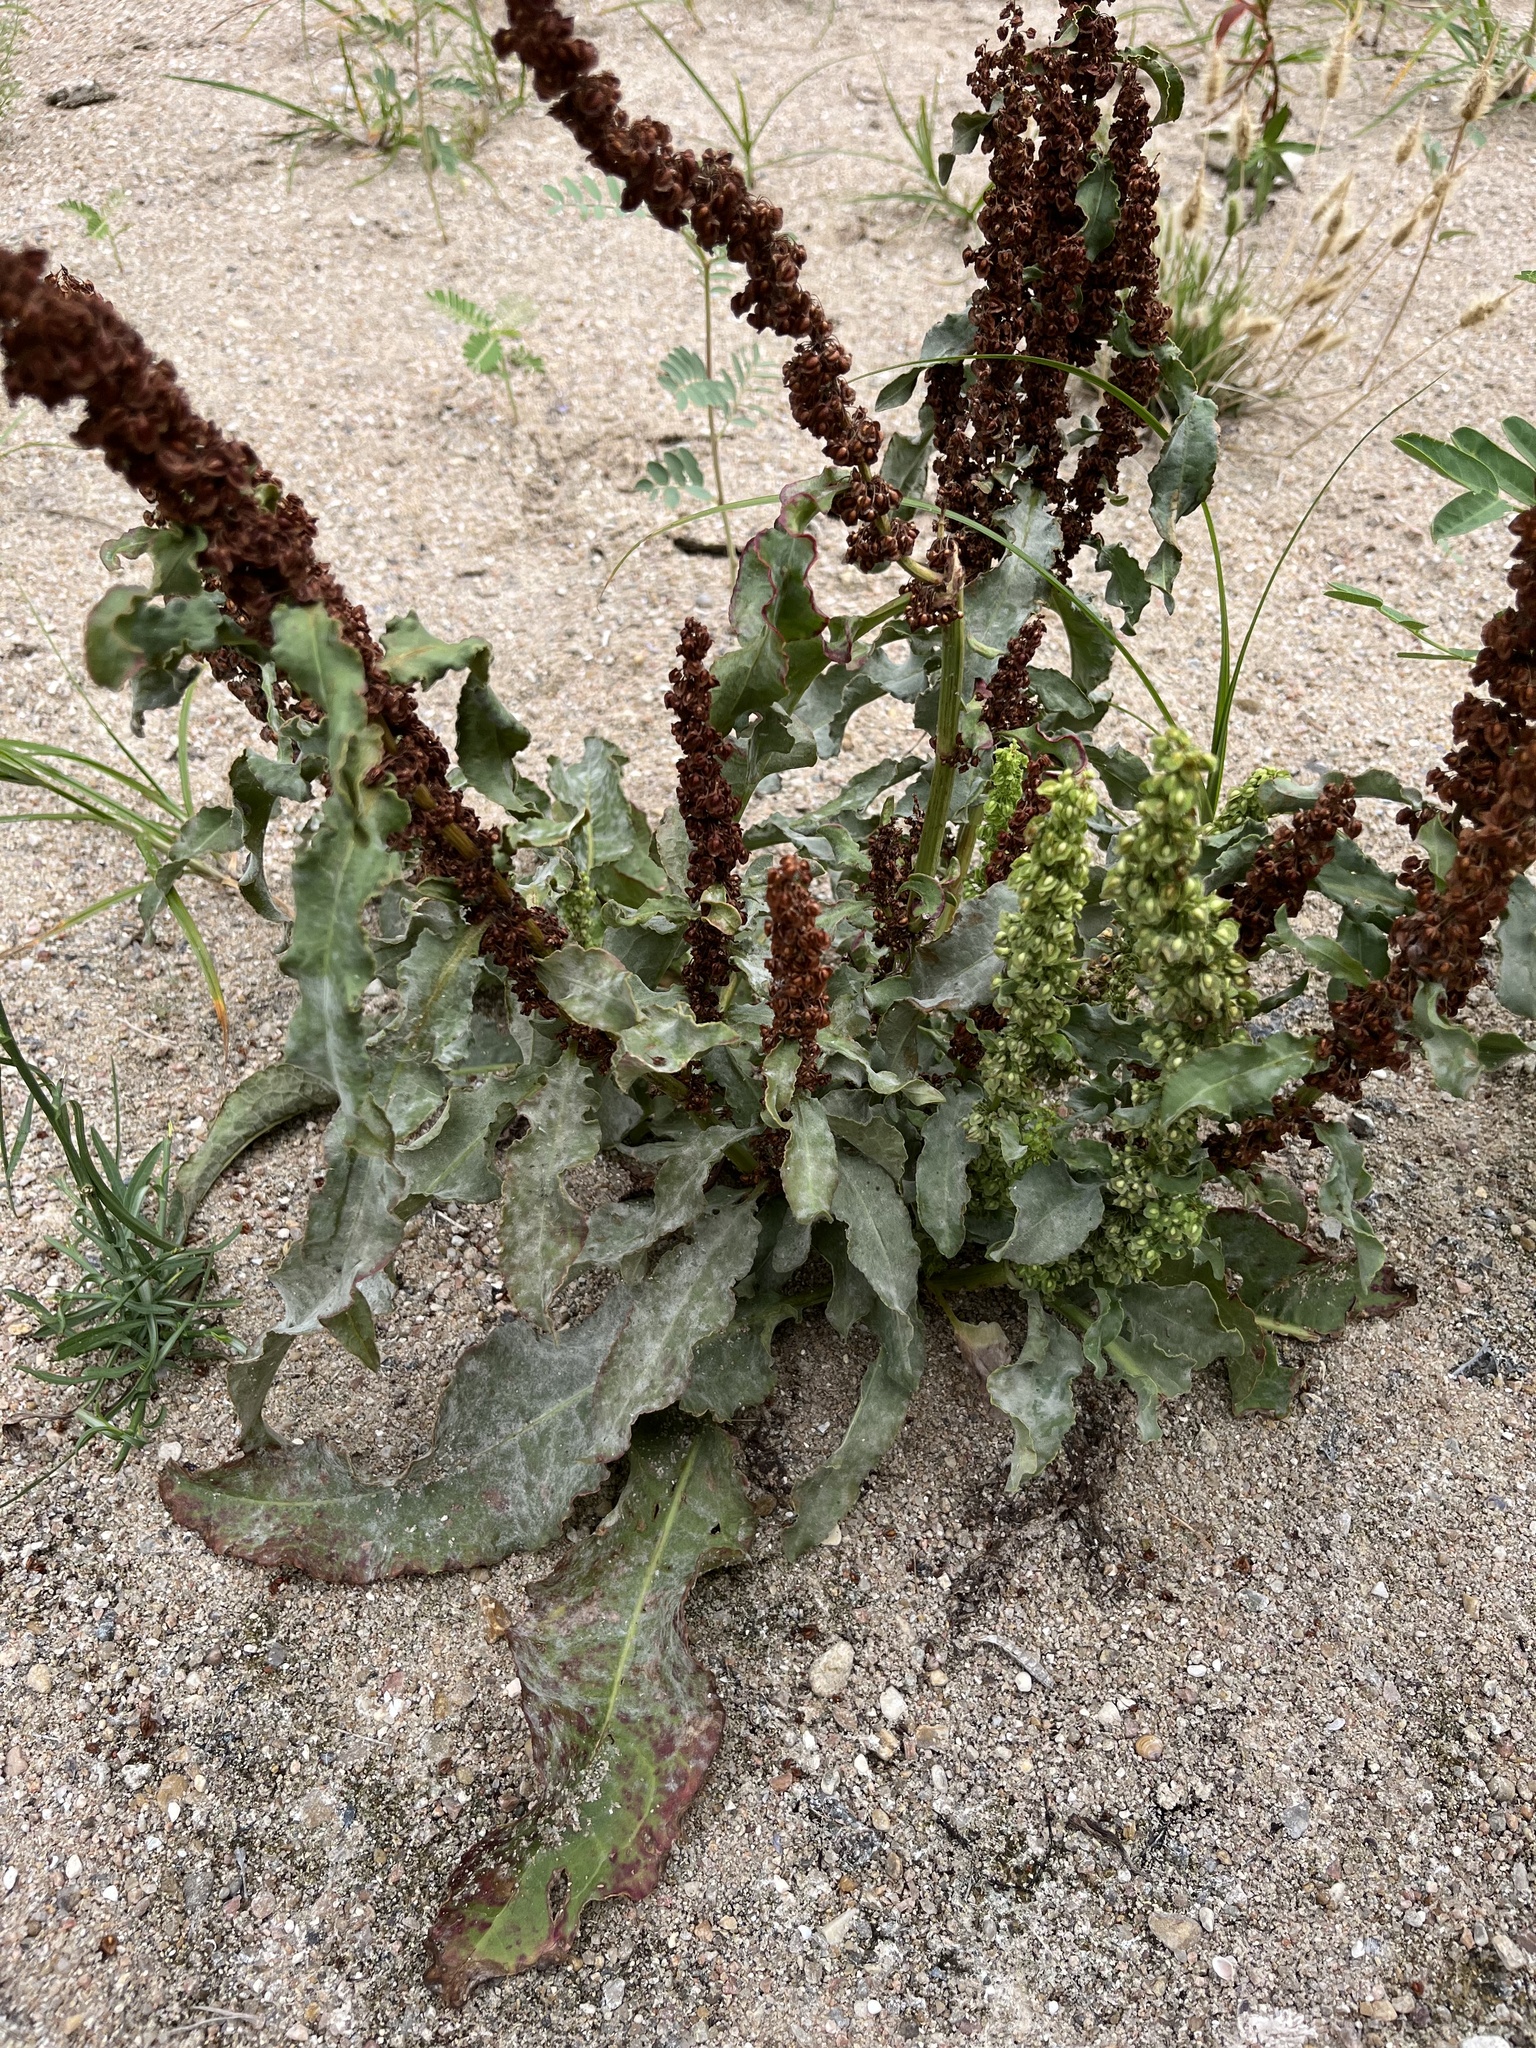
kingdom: Plantae
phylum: Tracheophyta
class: Magnoliopsida
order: Caryophyllales
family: Polygonaceae
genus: Rumex
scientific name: Rumex crispus
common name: Curled dock
